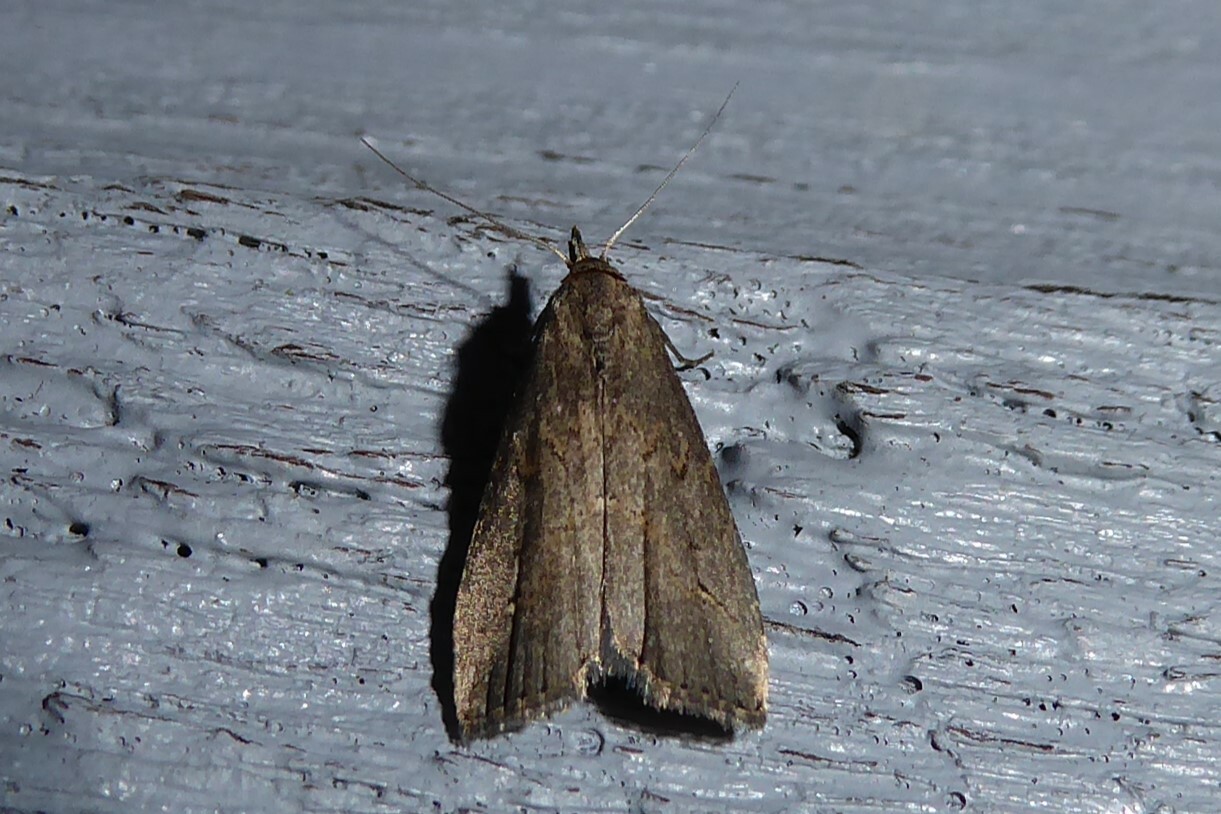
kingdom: Animalia
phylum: Arthropoda
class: Insecta
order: Lepidoptera
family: Erebidae
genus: Schrankia
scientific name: Schrankia costaestrigalis
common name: Pinion-streaked snout
